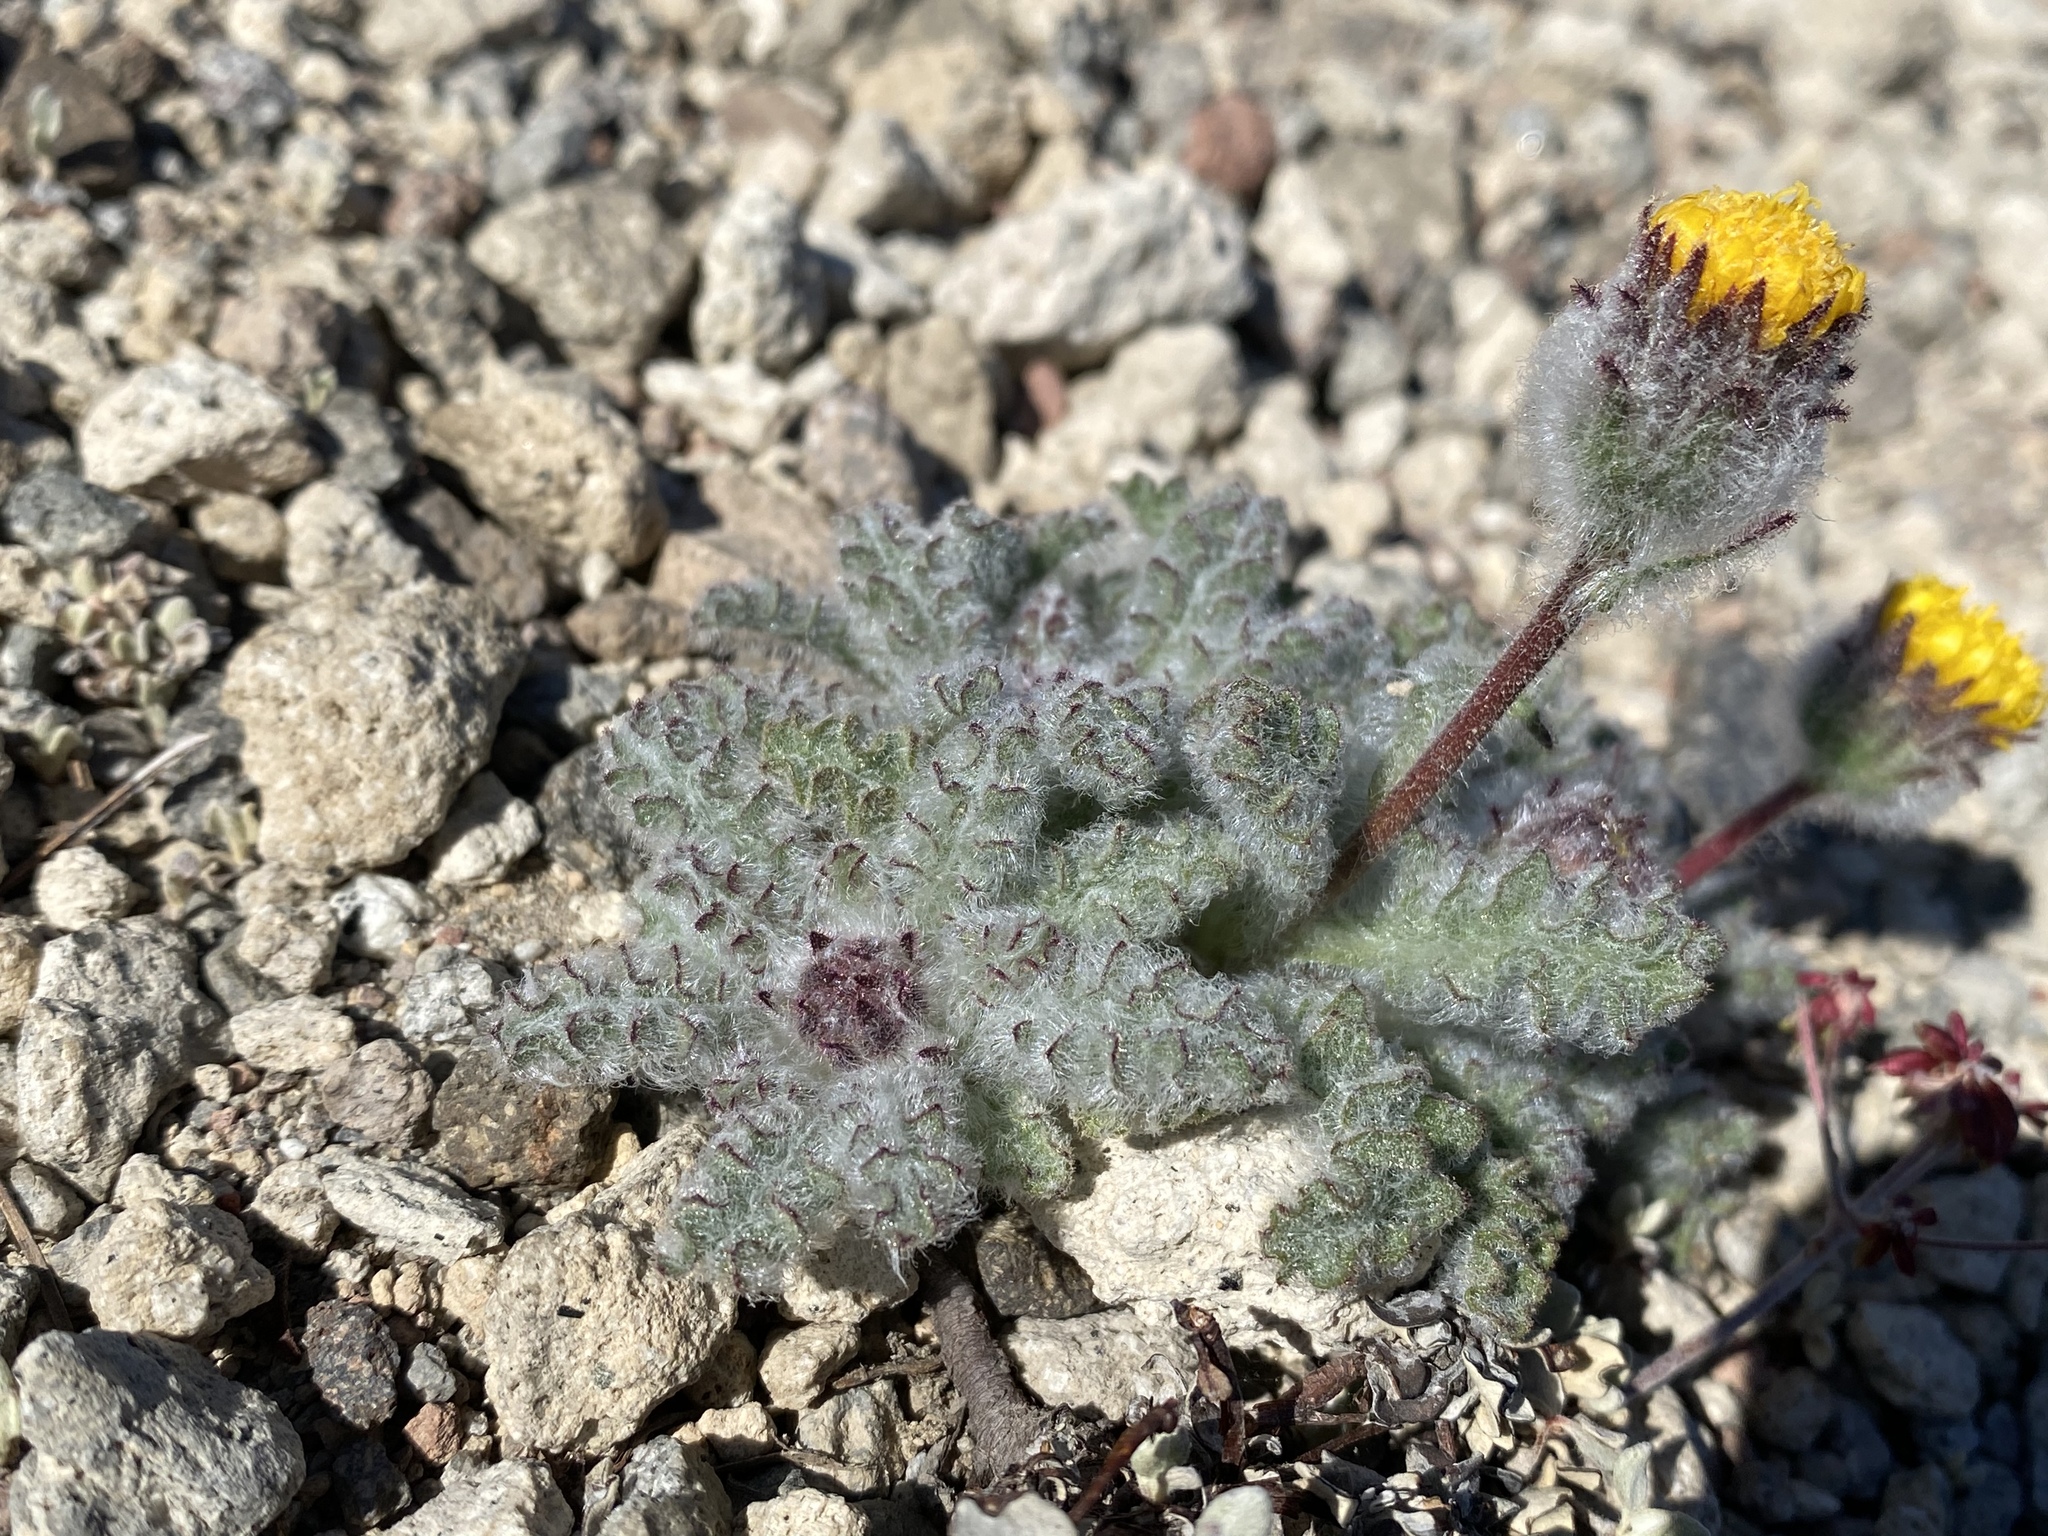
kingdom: Plantae
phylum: Tracheophyta
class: Magnoliopsida
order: Asterales
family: Asteraceae
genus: Hulsea
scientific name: Hulsea nana
